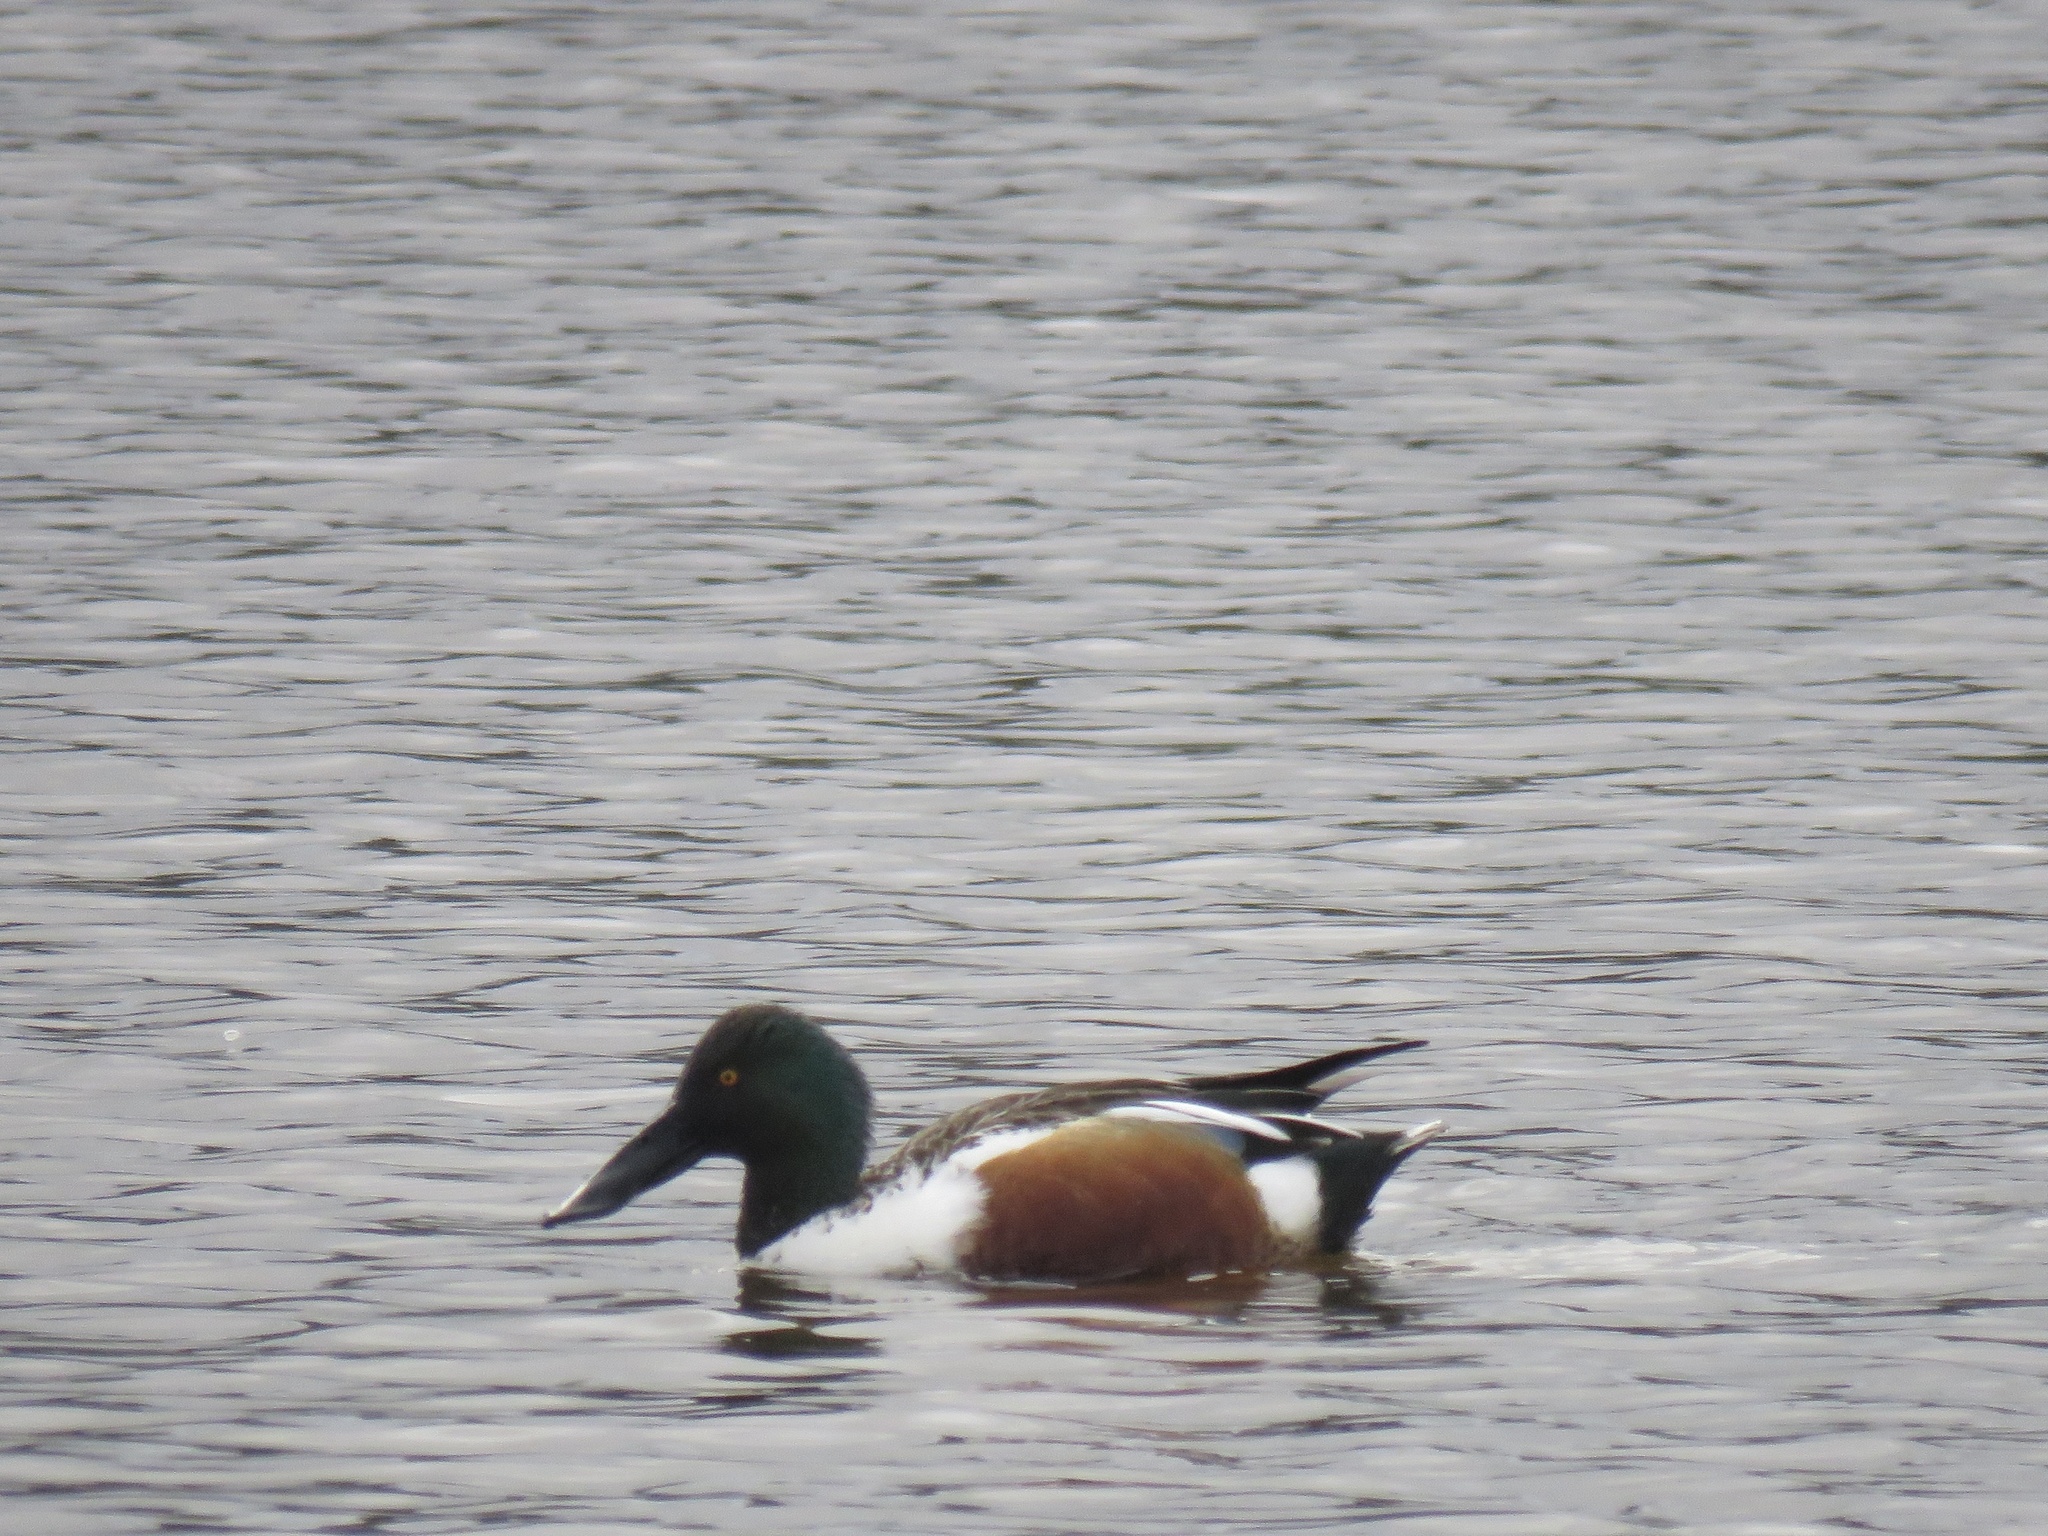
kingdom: Animalia
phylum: Chordata
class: Aves
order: Anseriformes
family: Anatidae
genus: Spatula
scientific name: Spatula clypeata
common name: Northern shoveler
